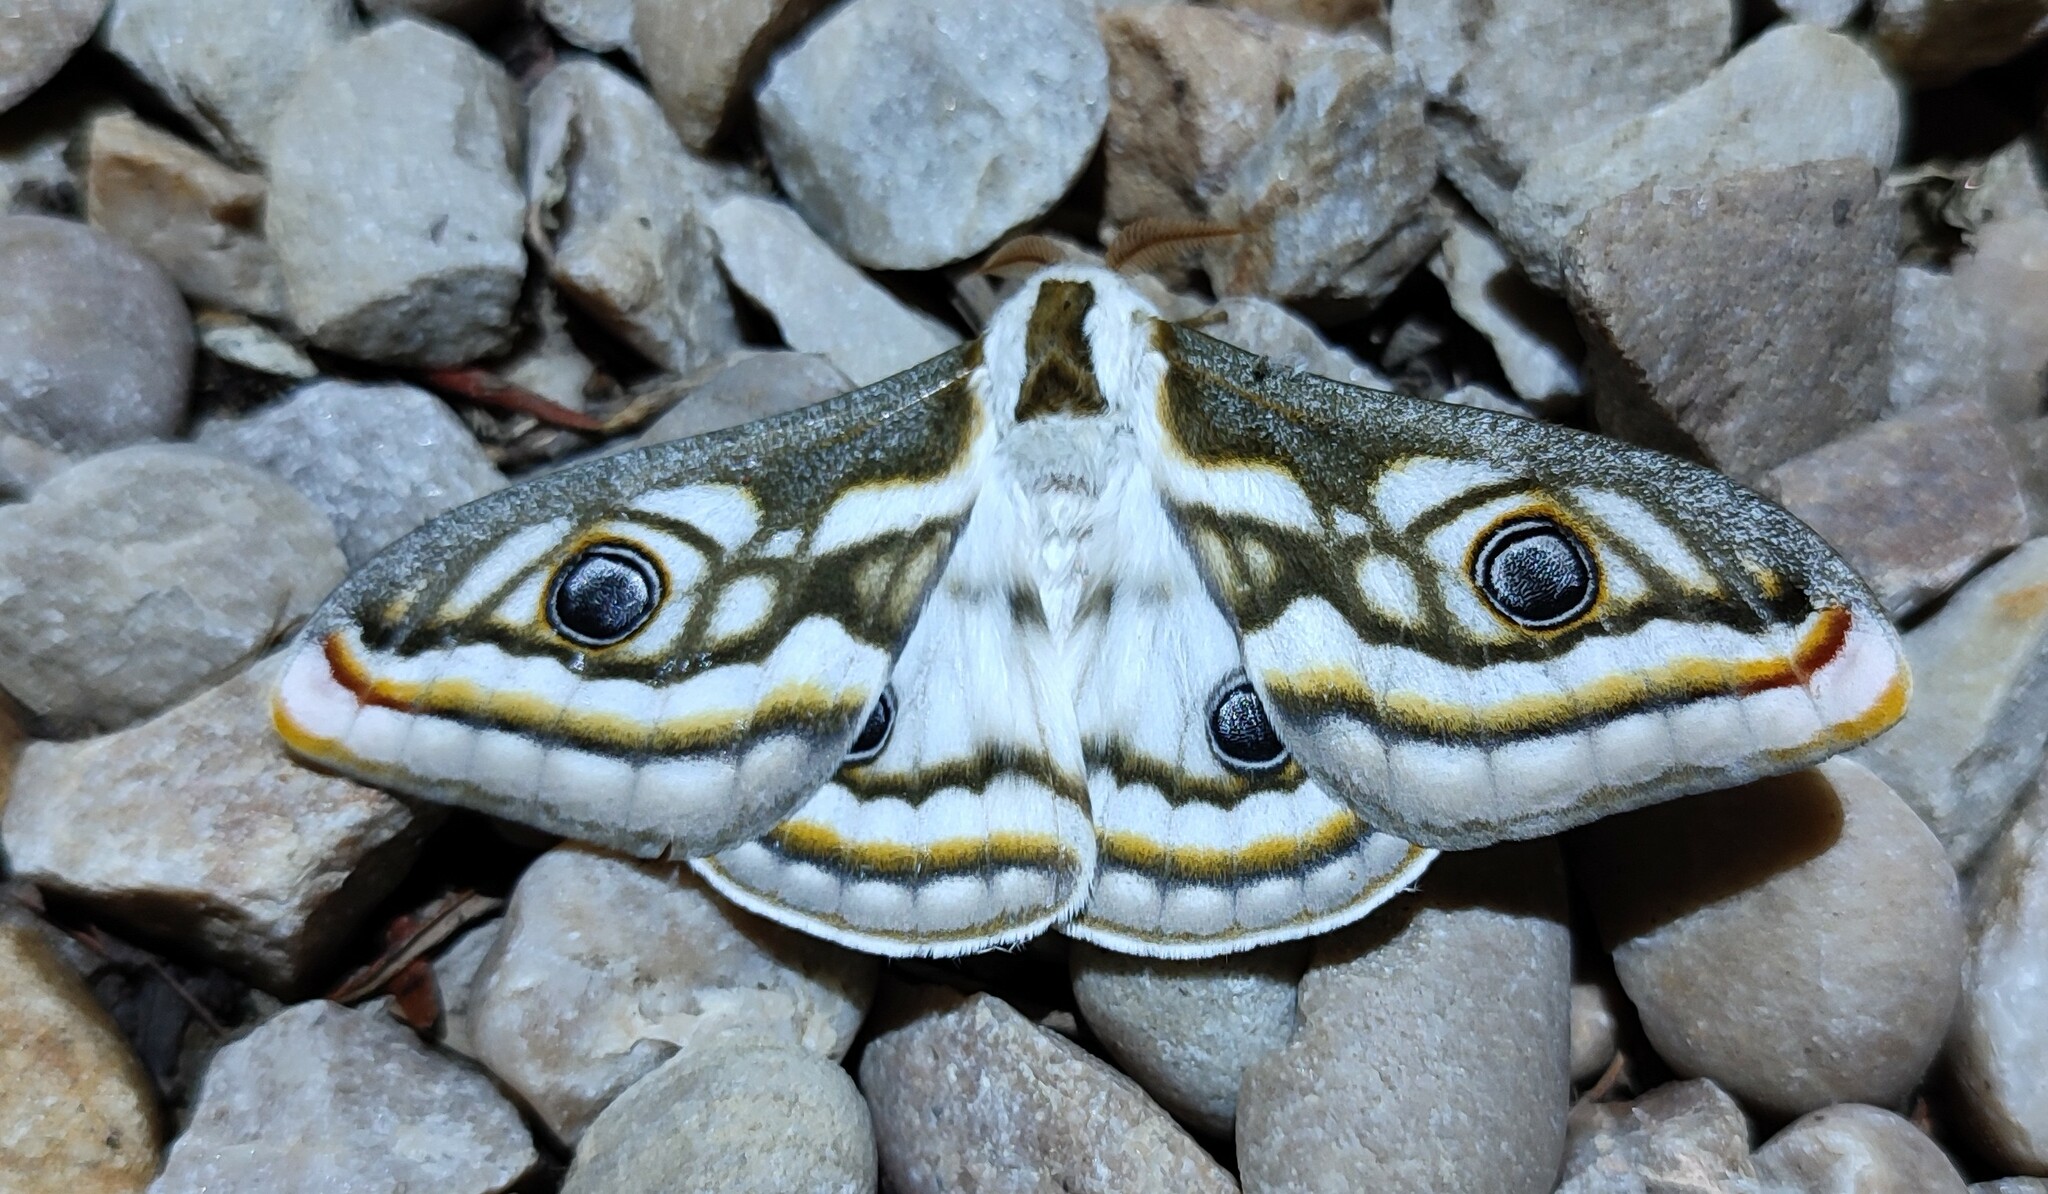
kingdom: Animalia
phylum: Arthropoda
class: Insecta
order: Lepidoptera
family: Saturniidae
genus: Heniocha
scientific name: Heniocha apollonia
